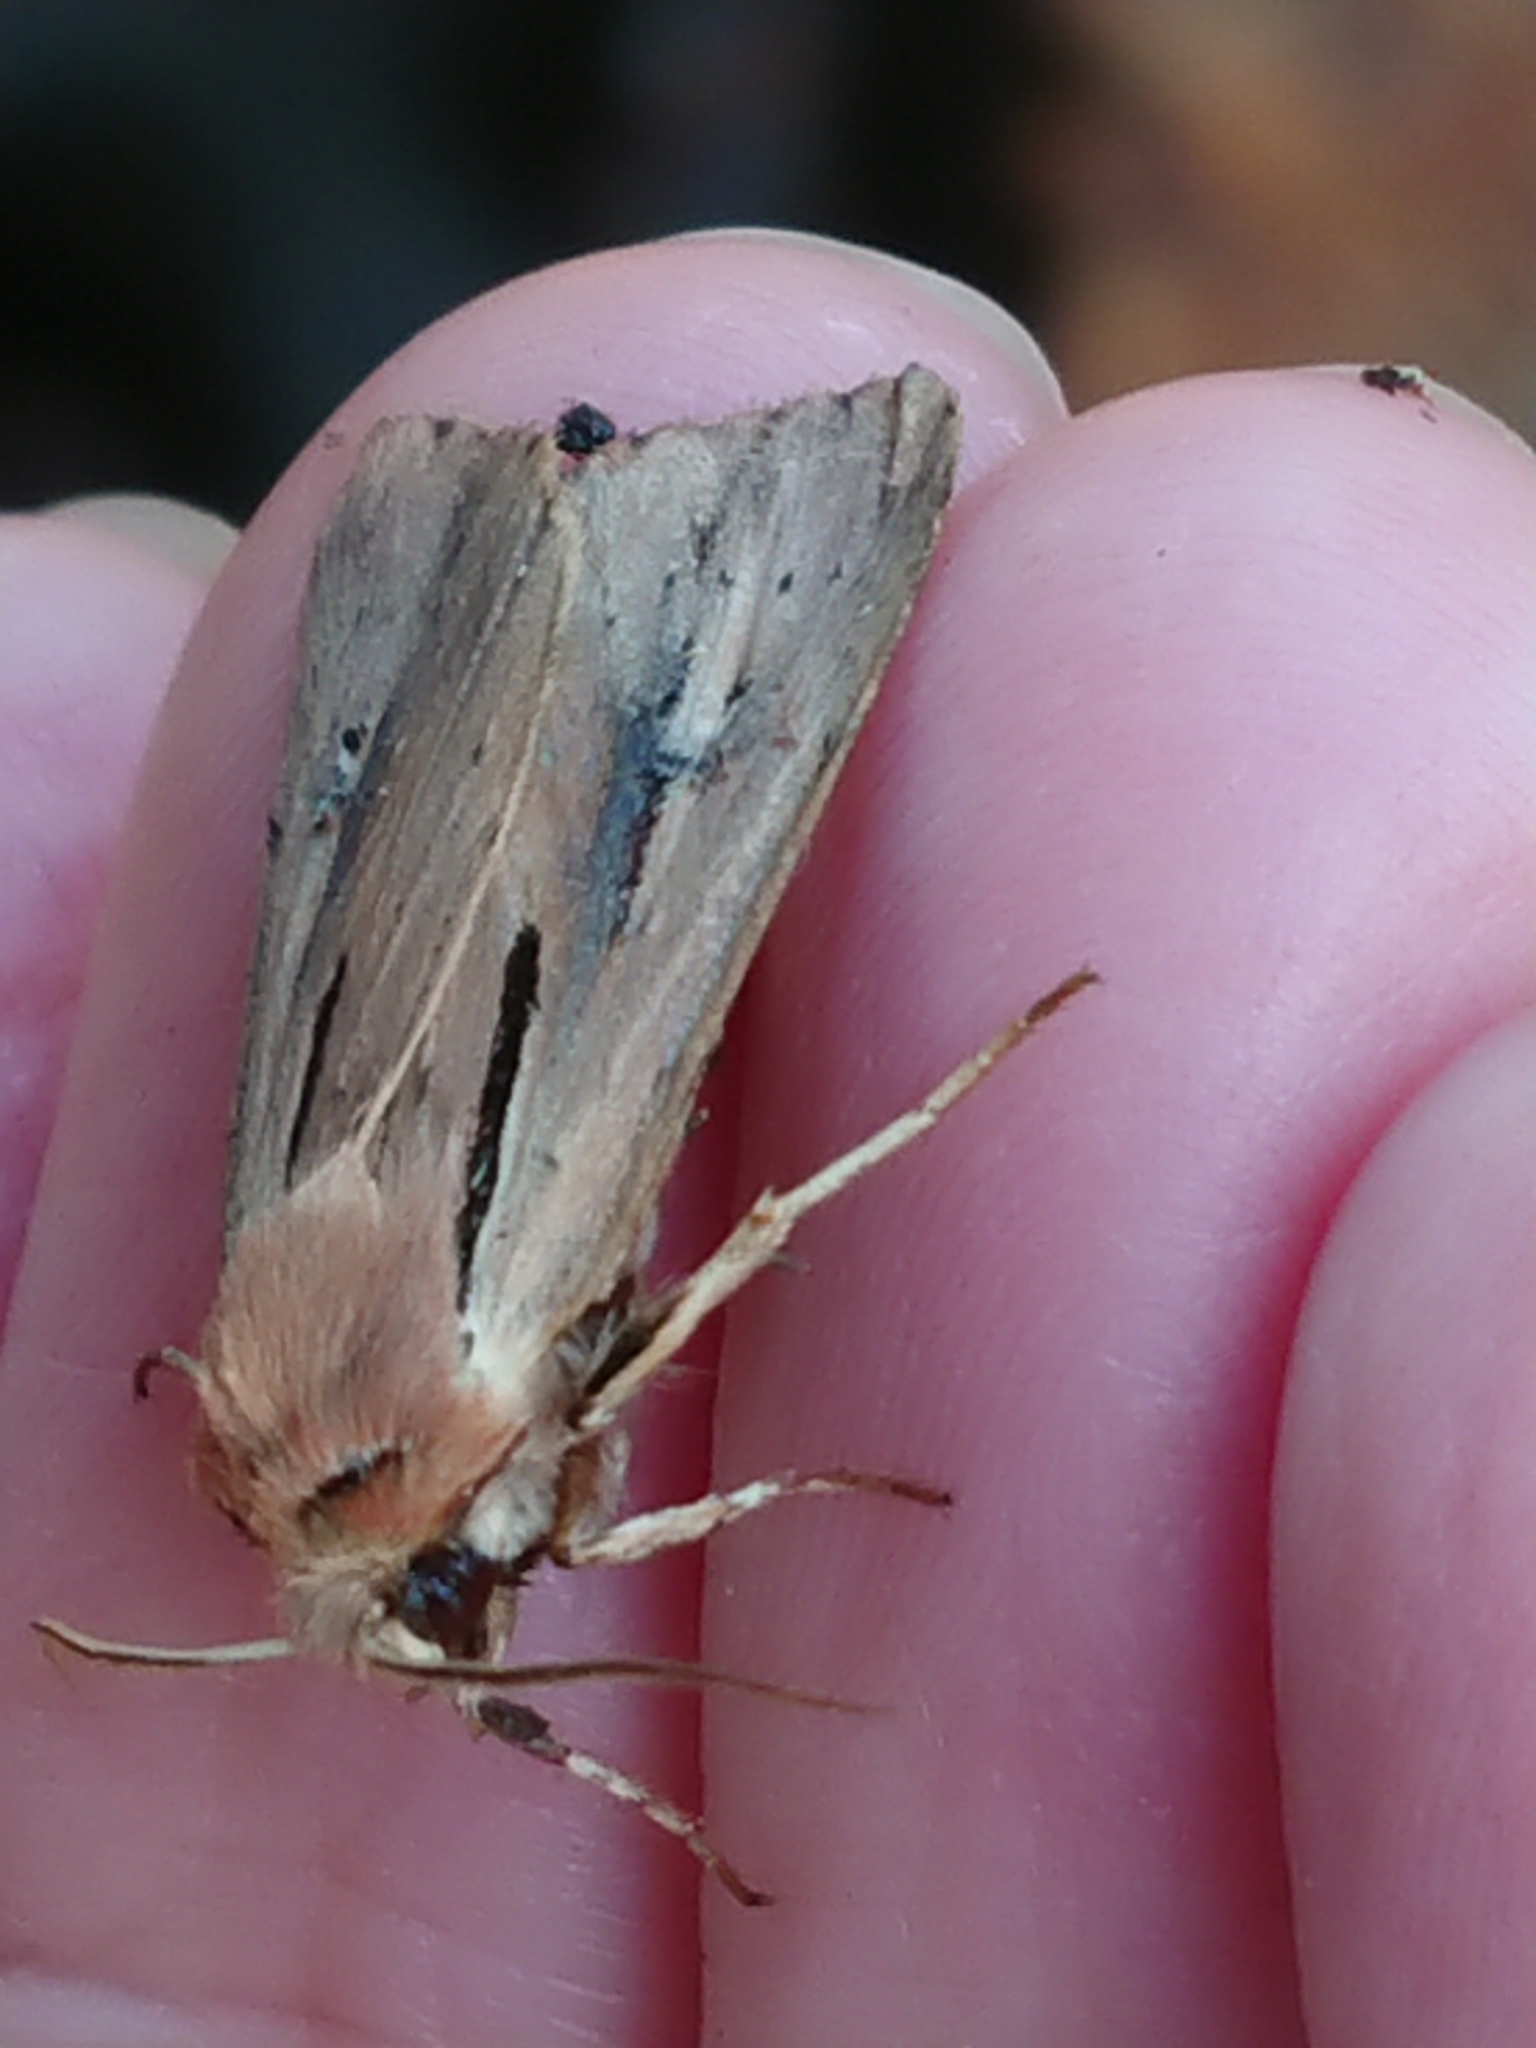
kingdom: Animalia
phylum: Arthropoda
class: Insecta
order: Lepidoptera
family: Noctuidae
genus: Ichneutica
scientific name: Ichneutica propria
